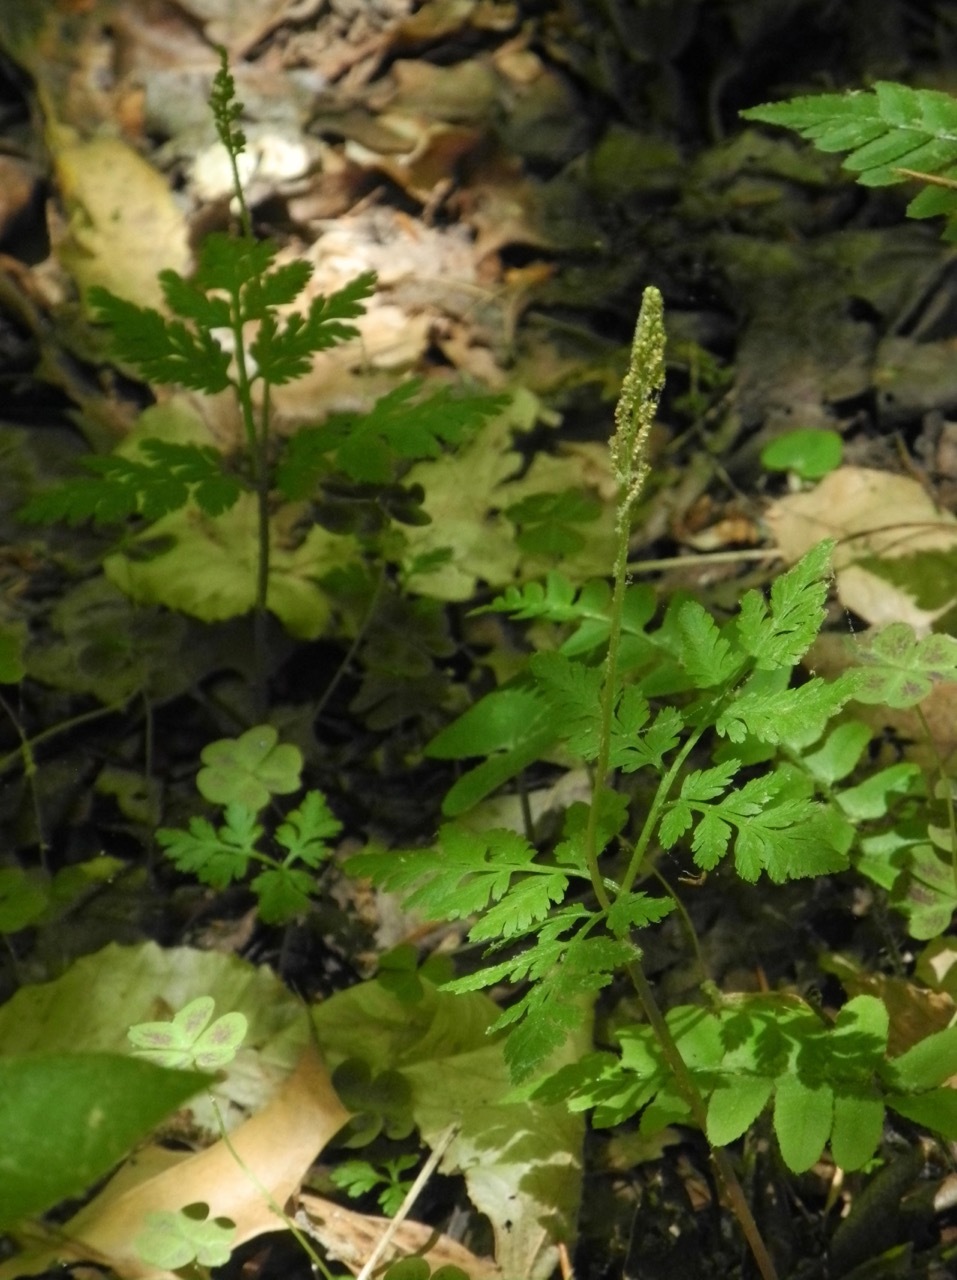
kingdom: Plantae
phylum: Tracheophyta
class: Polypodiopsida
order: Ophioglossales
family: Ophioglossaceae
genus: Botrypus
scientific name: Botrypus virginianus
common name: Common grapefern
